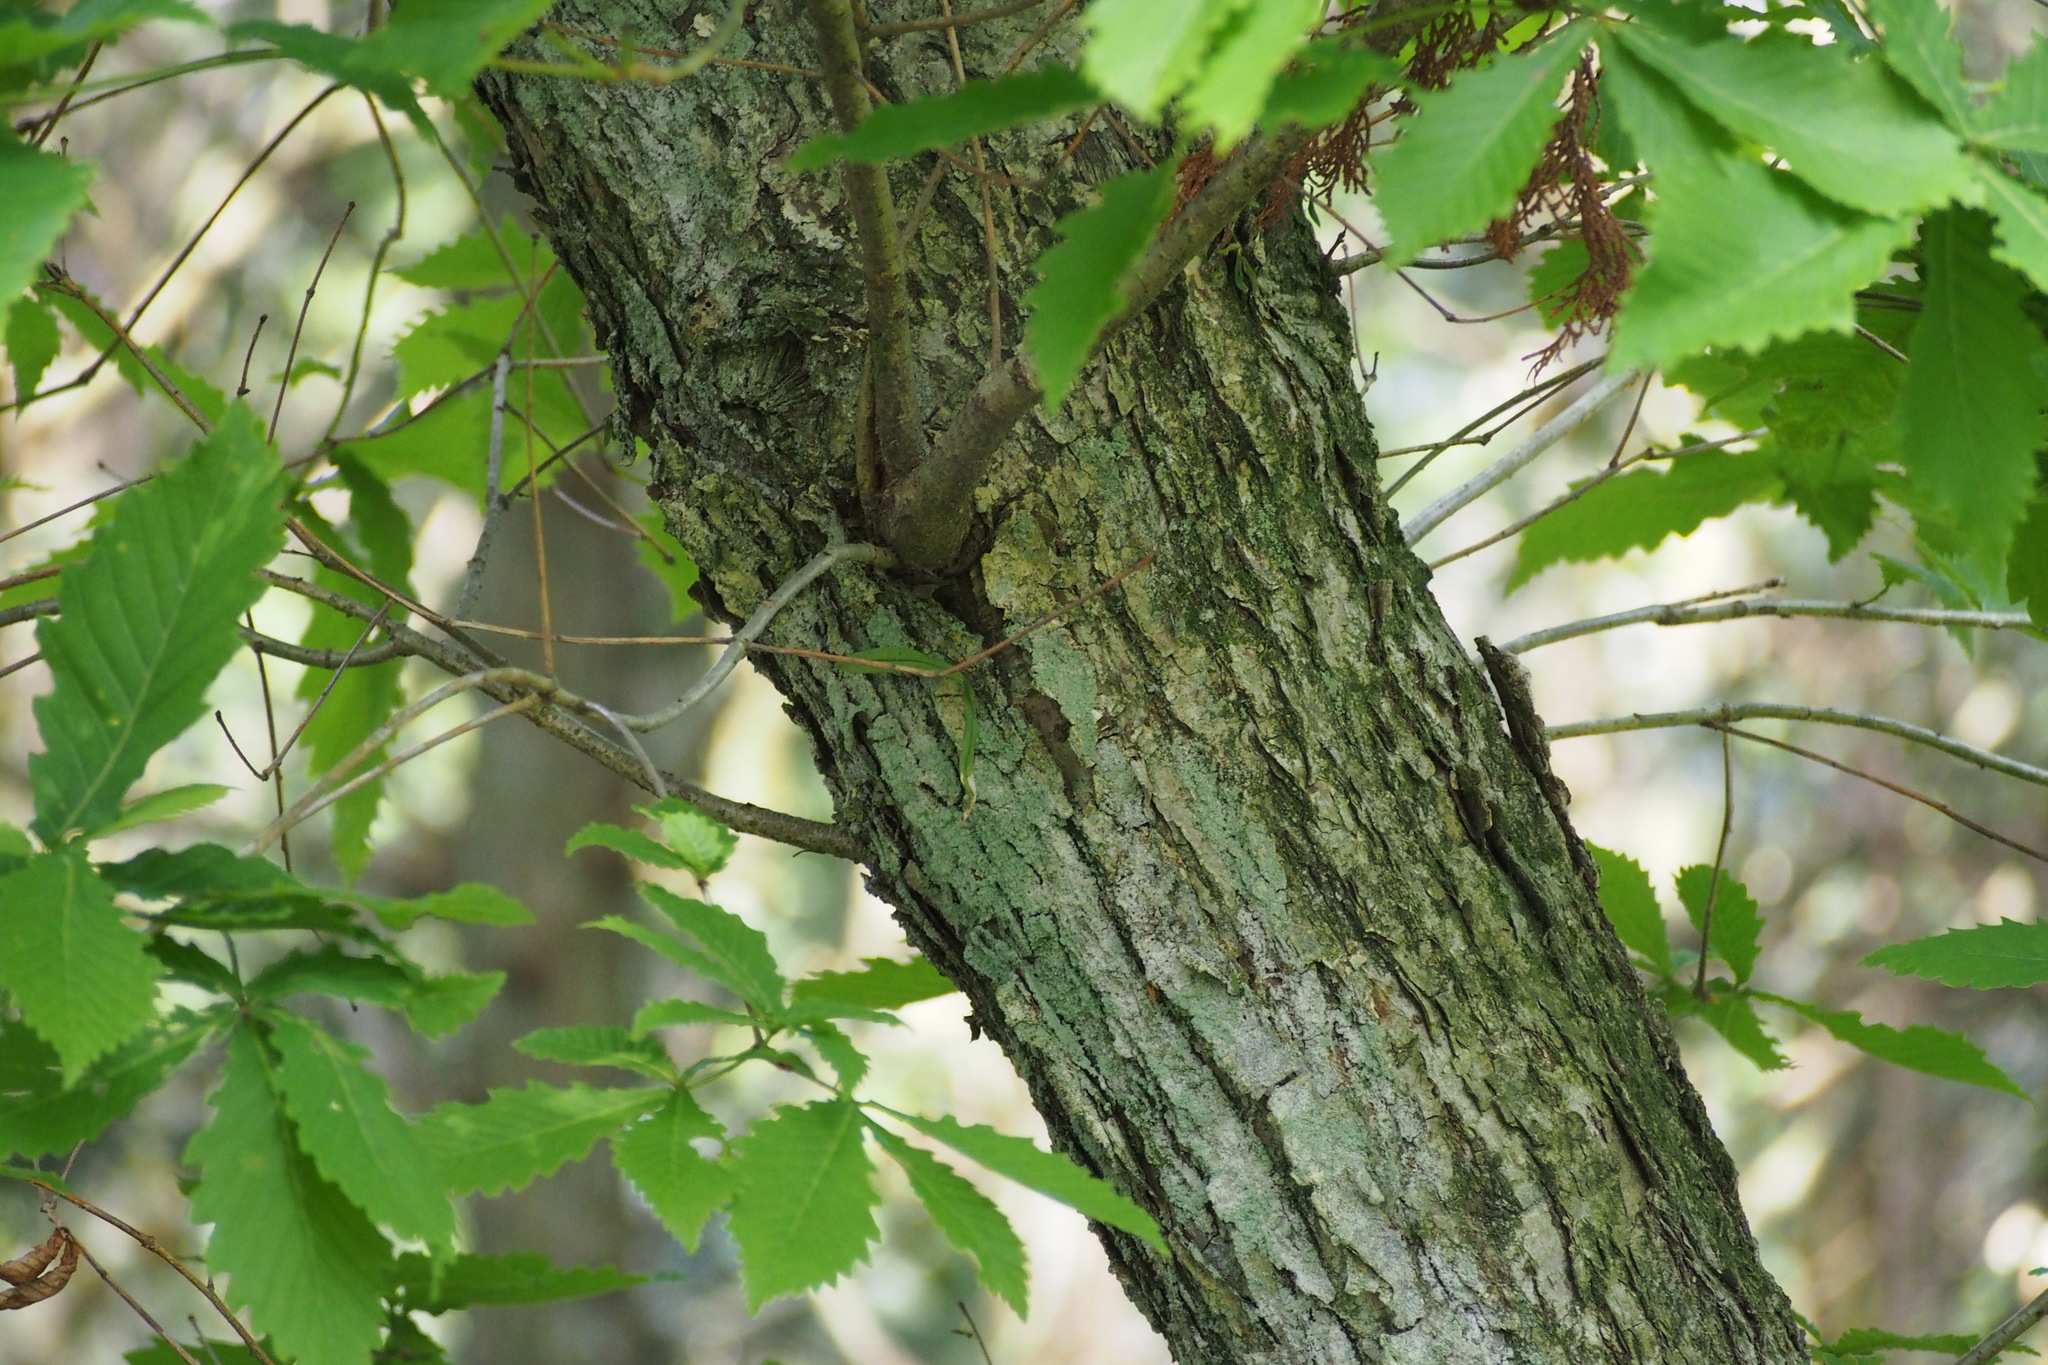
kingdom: Plantae
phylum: Tracheophyta
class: Magnoliopsida
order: Fagales
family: Fagaceae
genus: Quercus
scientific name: Quercus crispula
